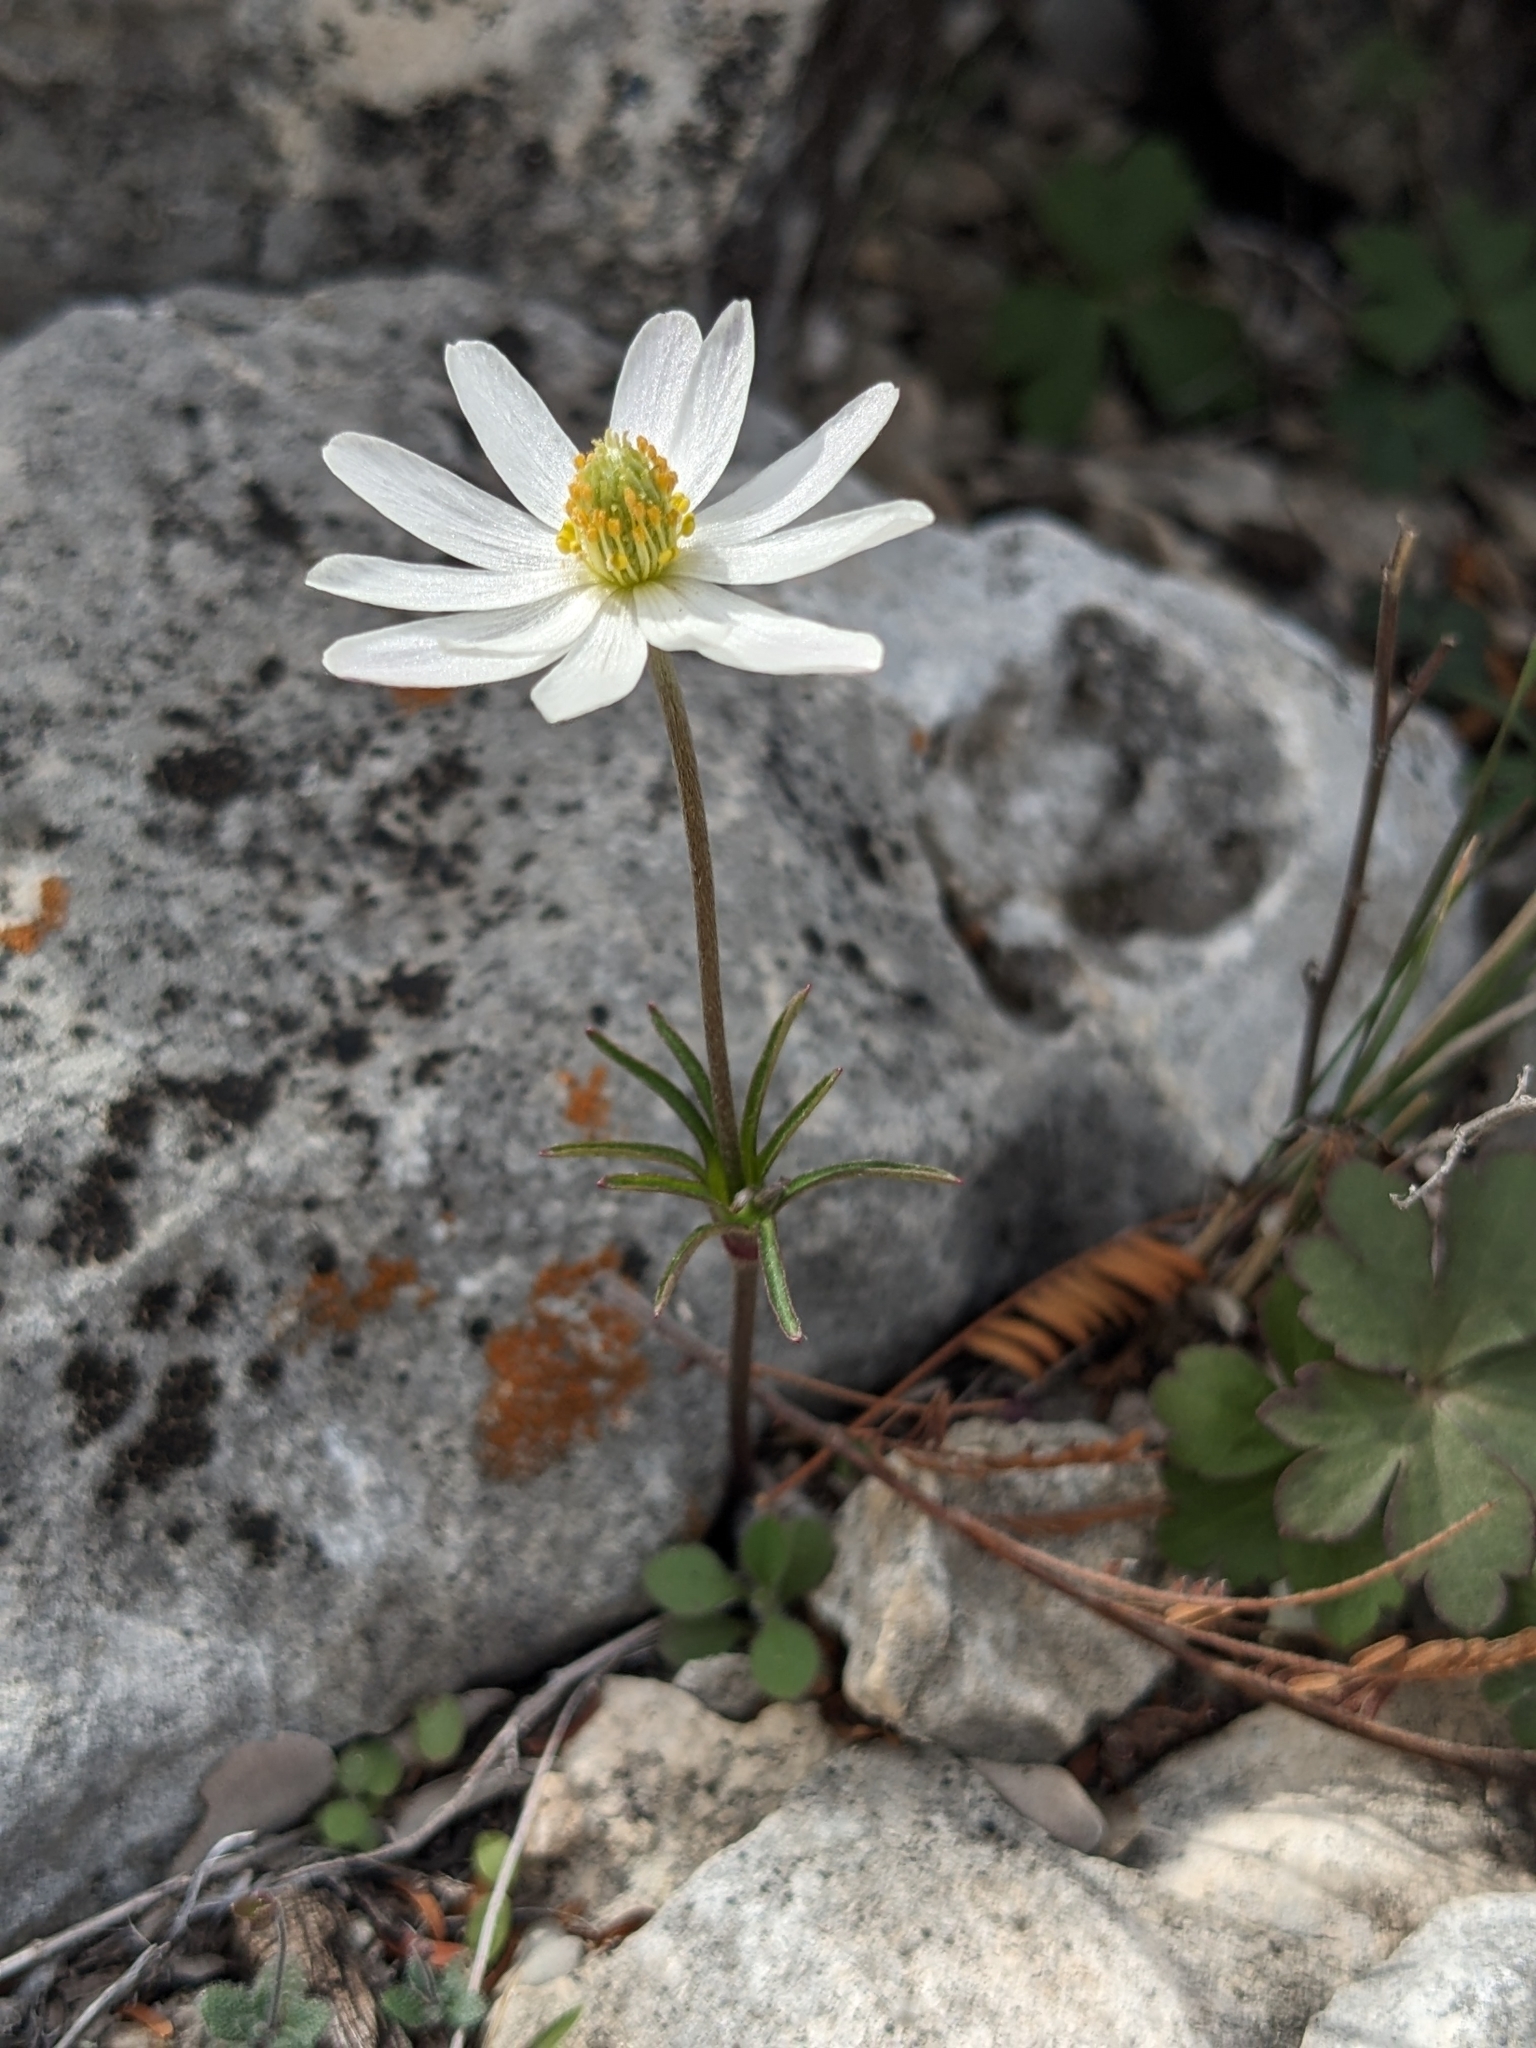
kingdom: Plantae
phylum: Tracheophyta
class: Magnoliopsida
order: Ranunculales
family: Ranunculaceae
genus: Anemone
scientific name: Anemone tuberosa
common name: Desert anemone
